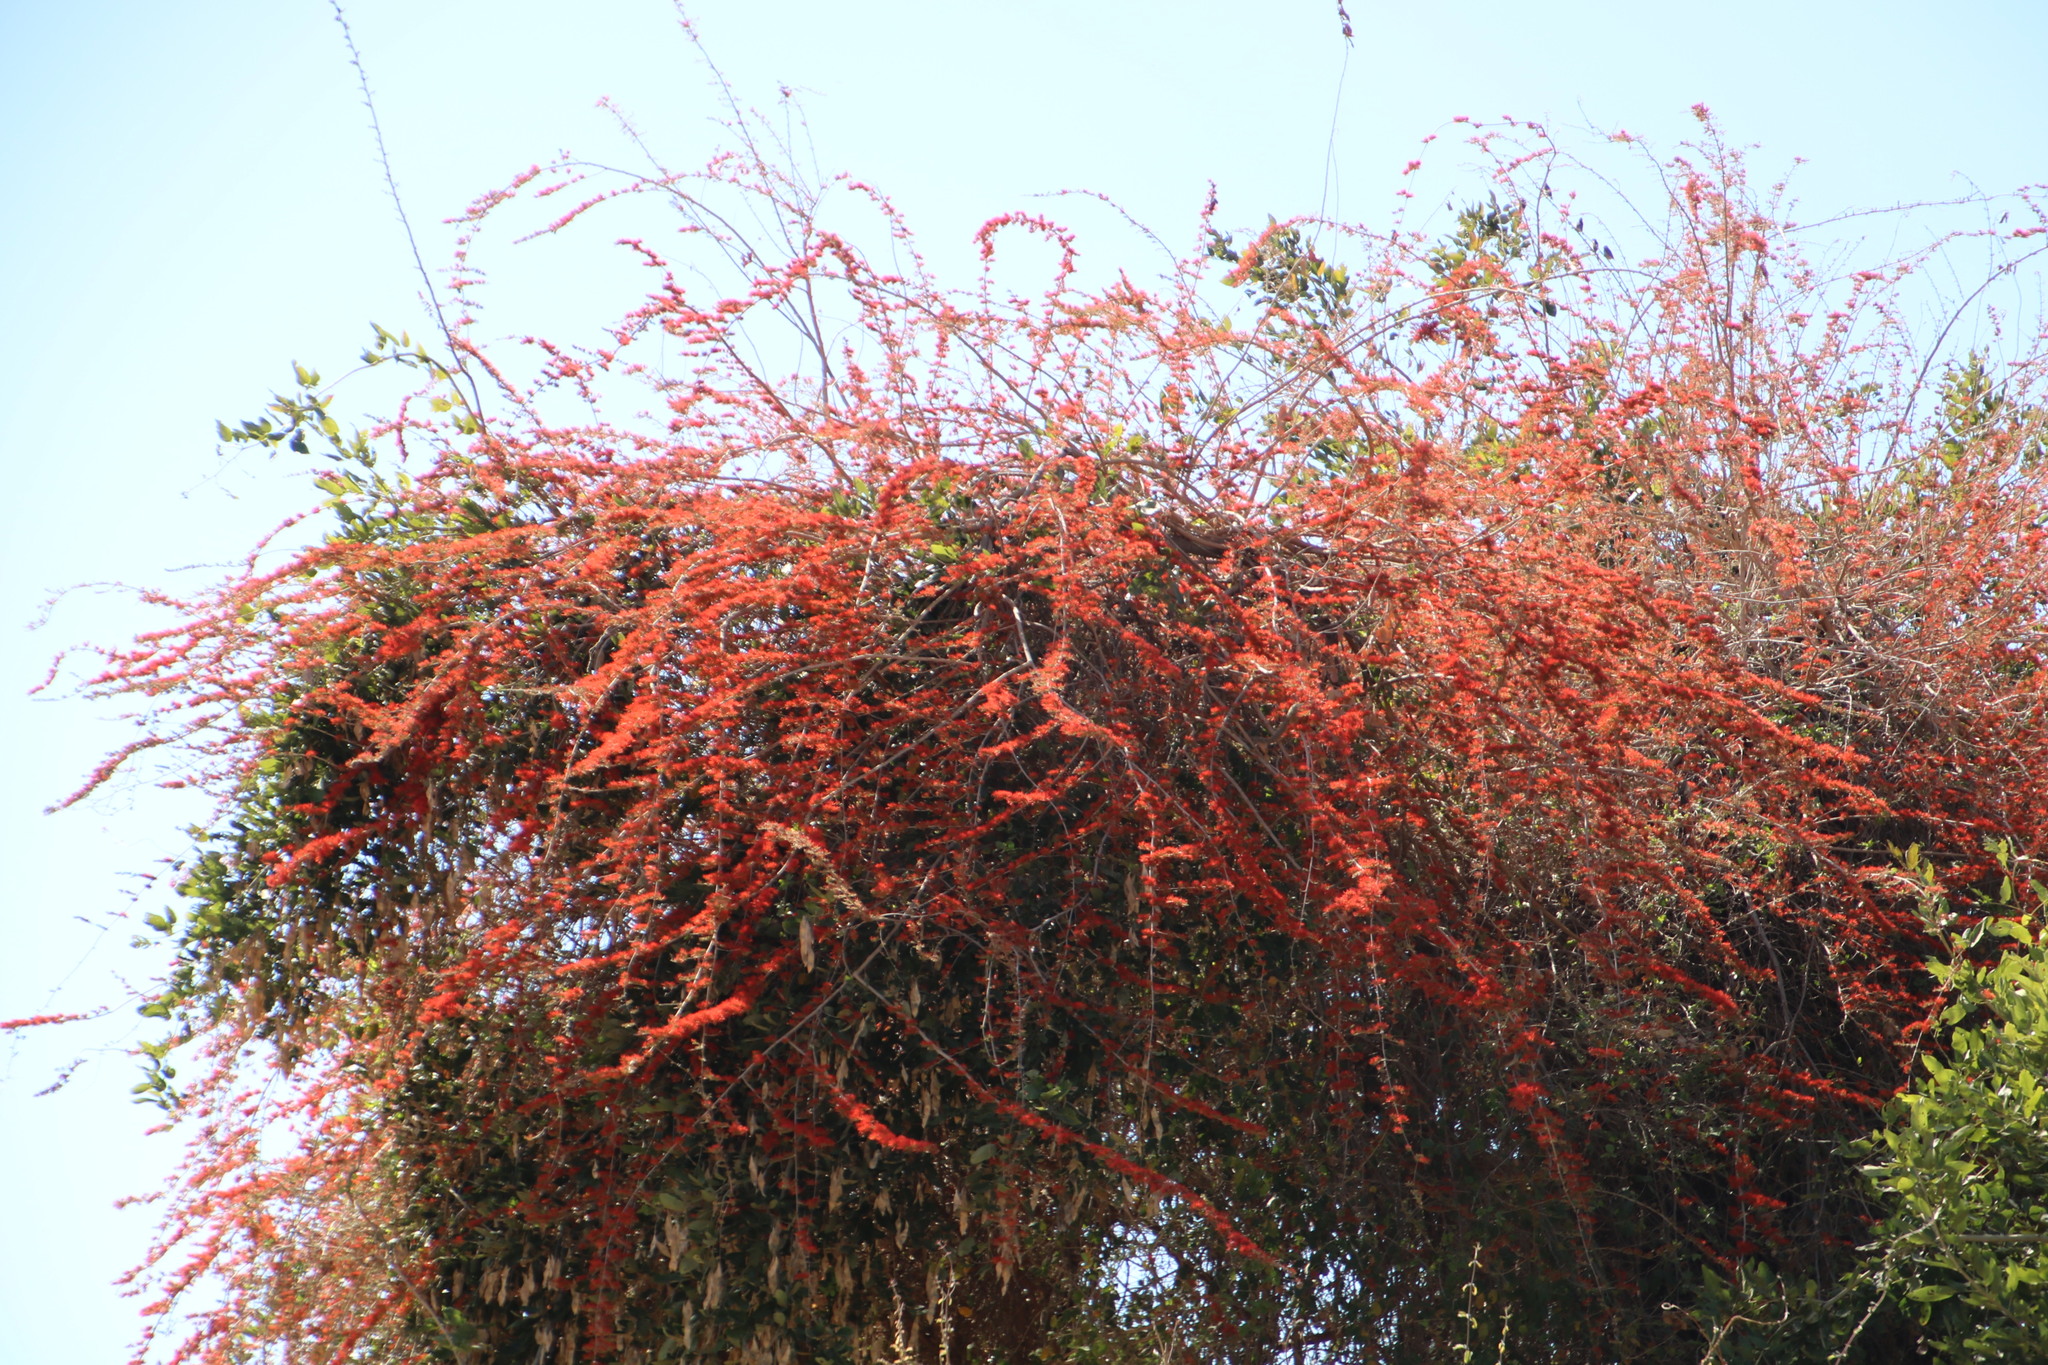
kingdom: Plantae
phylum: Tracheophyta
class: Magnoliopsida
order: Myrtales
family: Combretaceae
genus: Combretum
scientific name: Combretum microphyllum
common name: Burningbush
